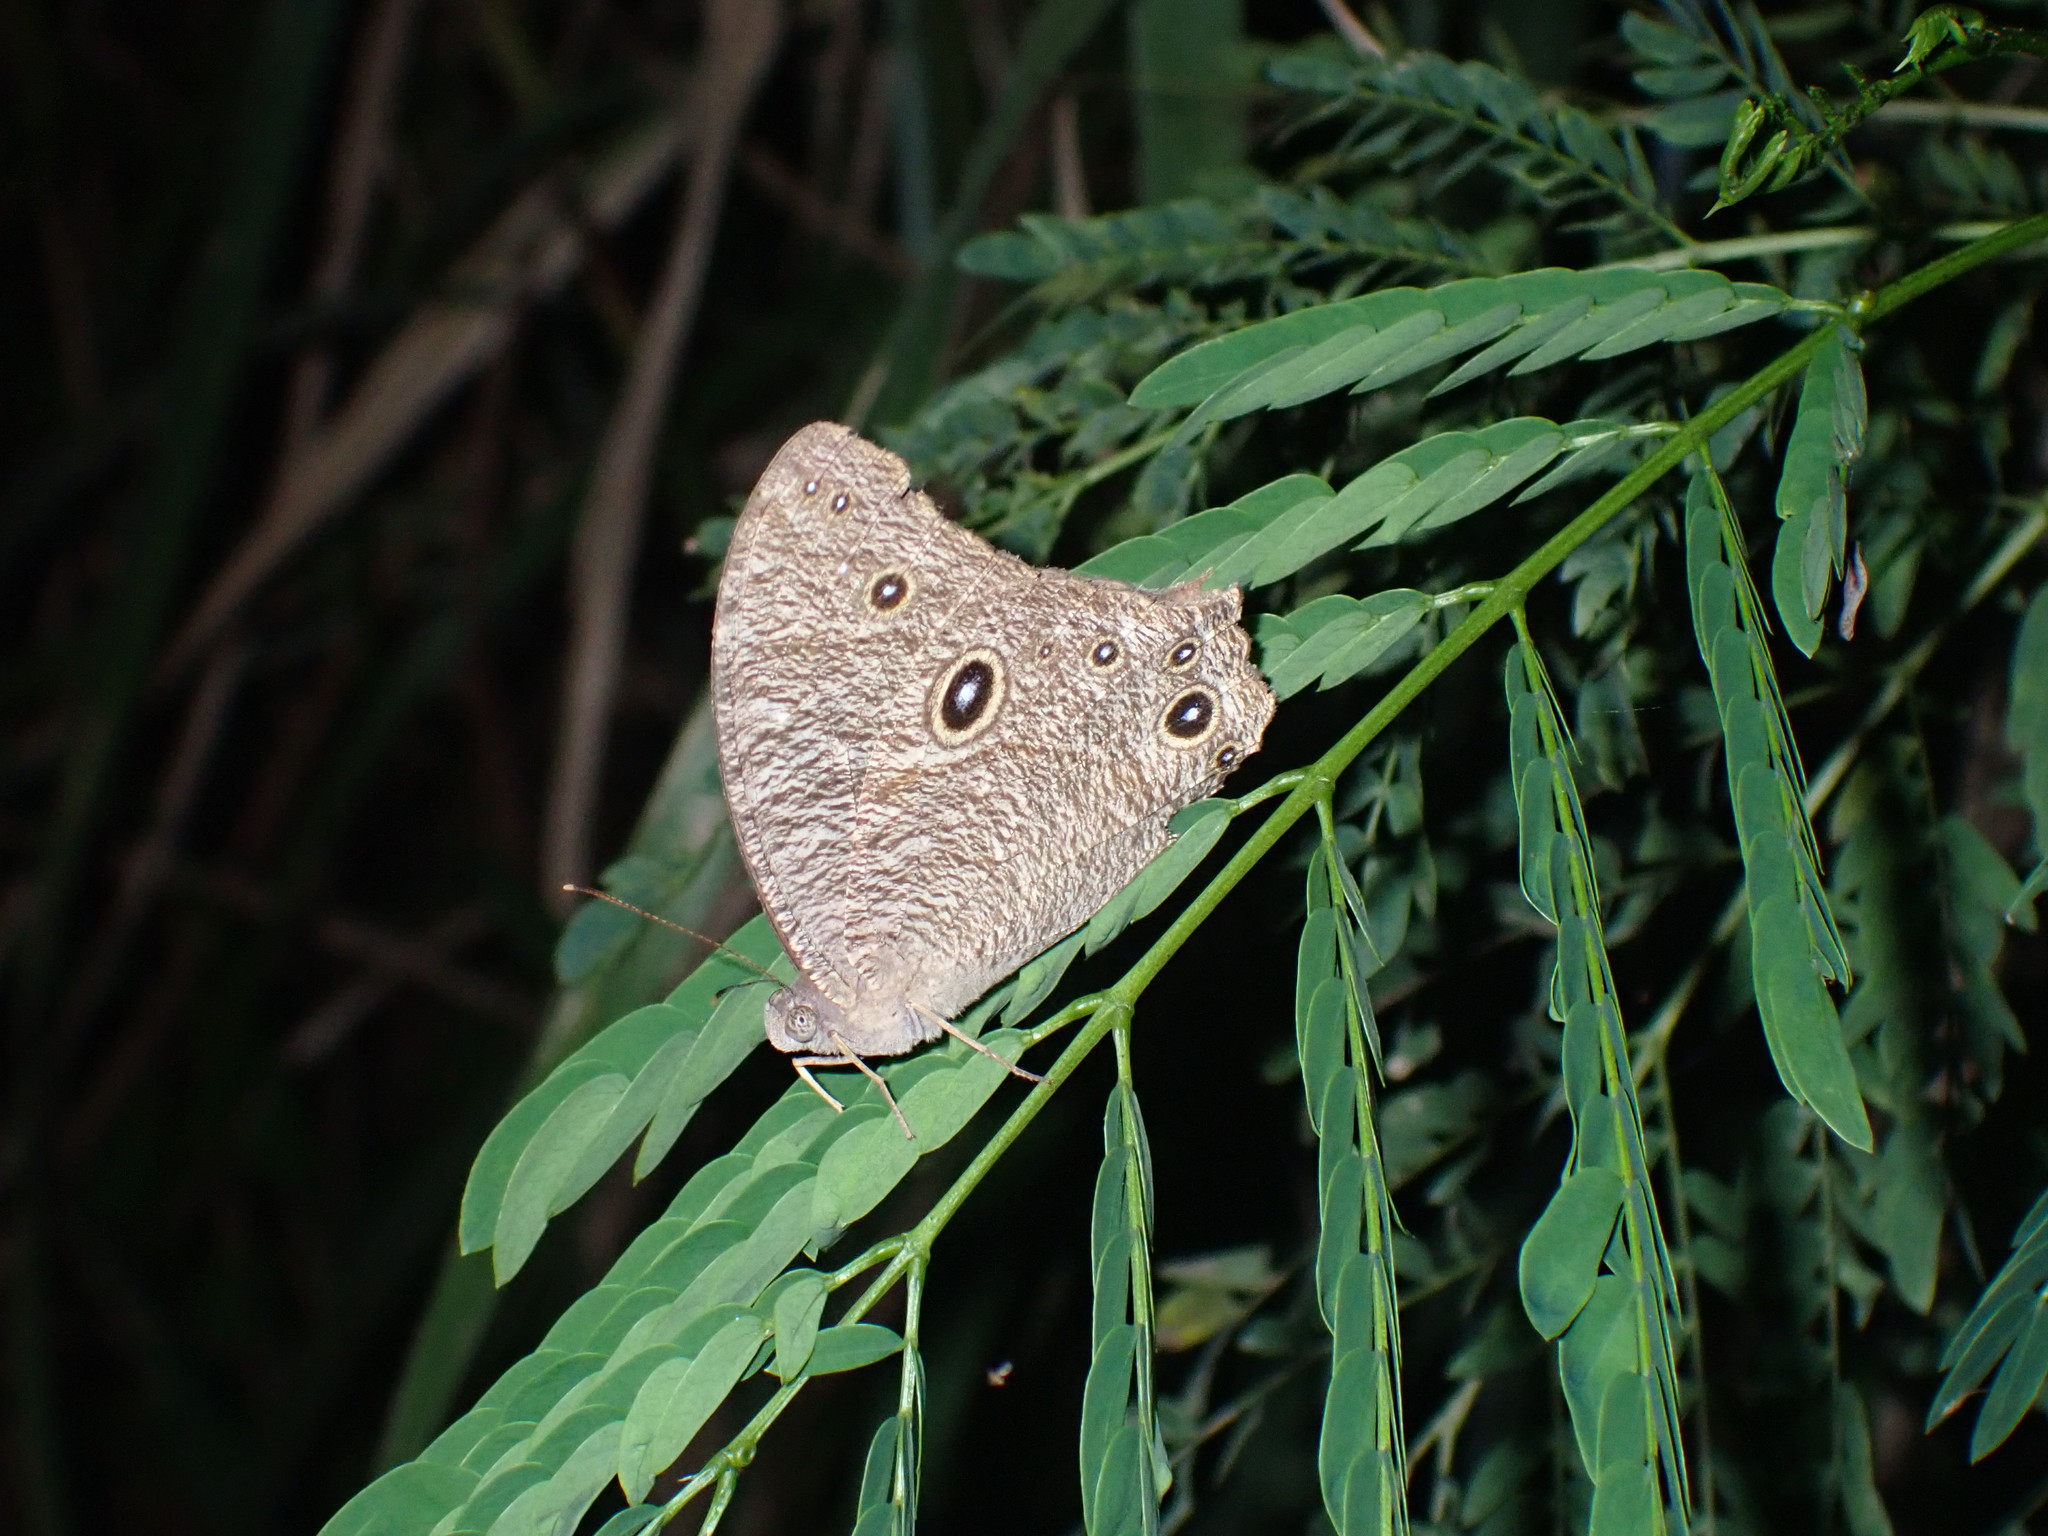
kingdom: Animalia
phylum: Arthropoda
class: Insecta
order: Lepidoptera
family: Nymphalidae
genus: Melanitis
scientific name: Melanitis leda
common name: Twilight brown
